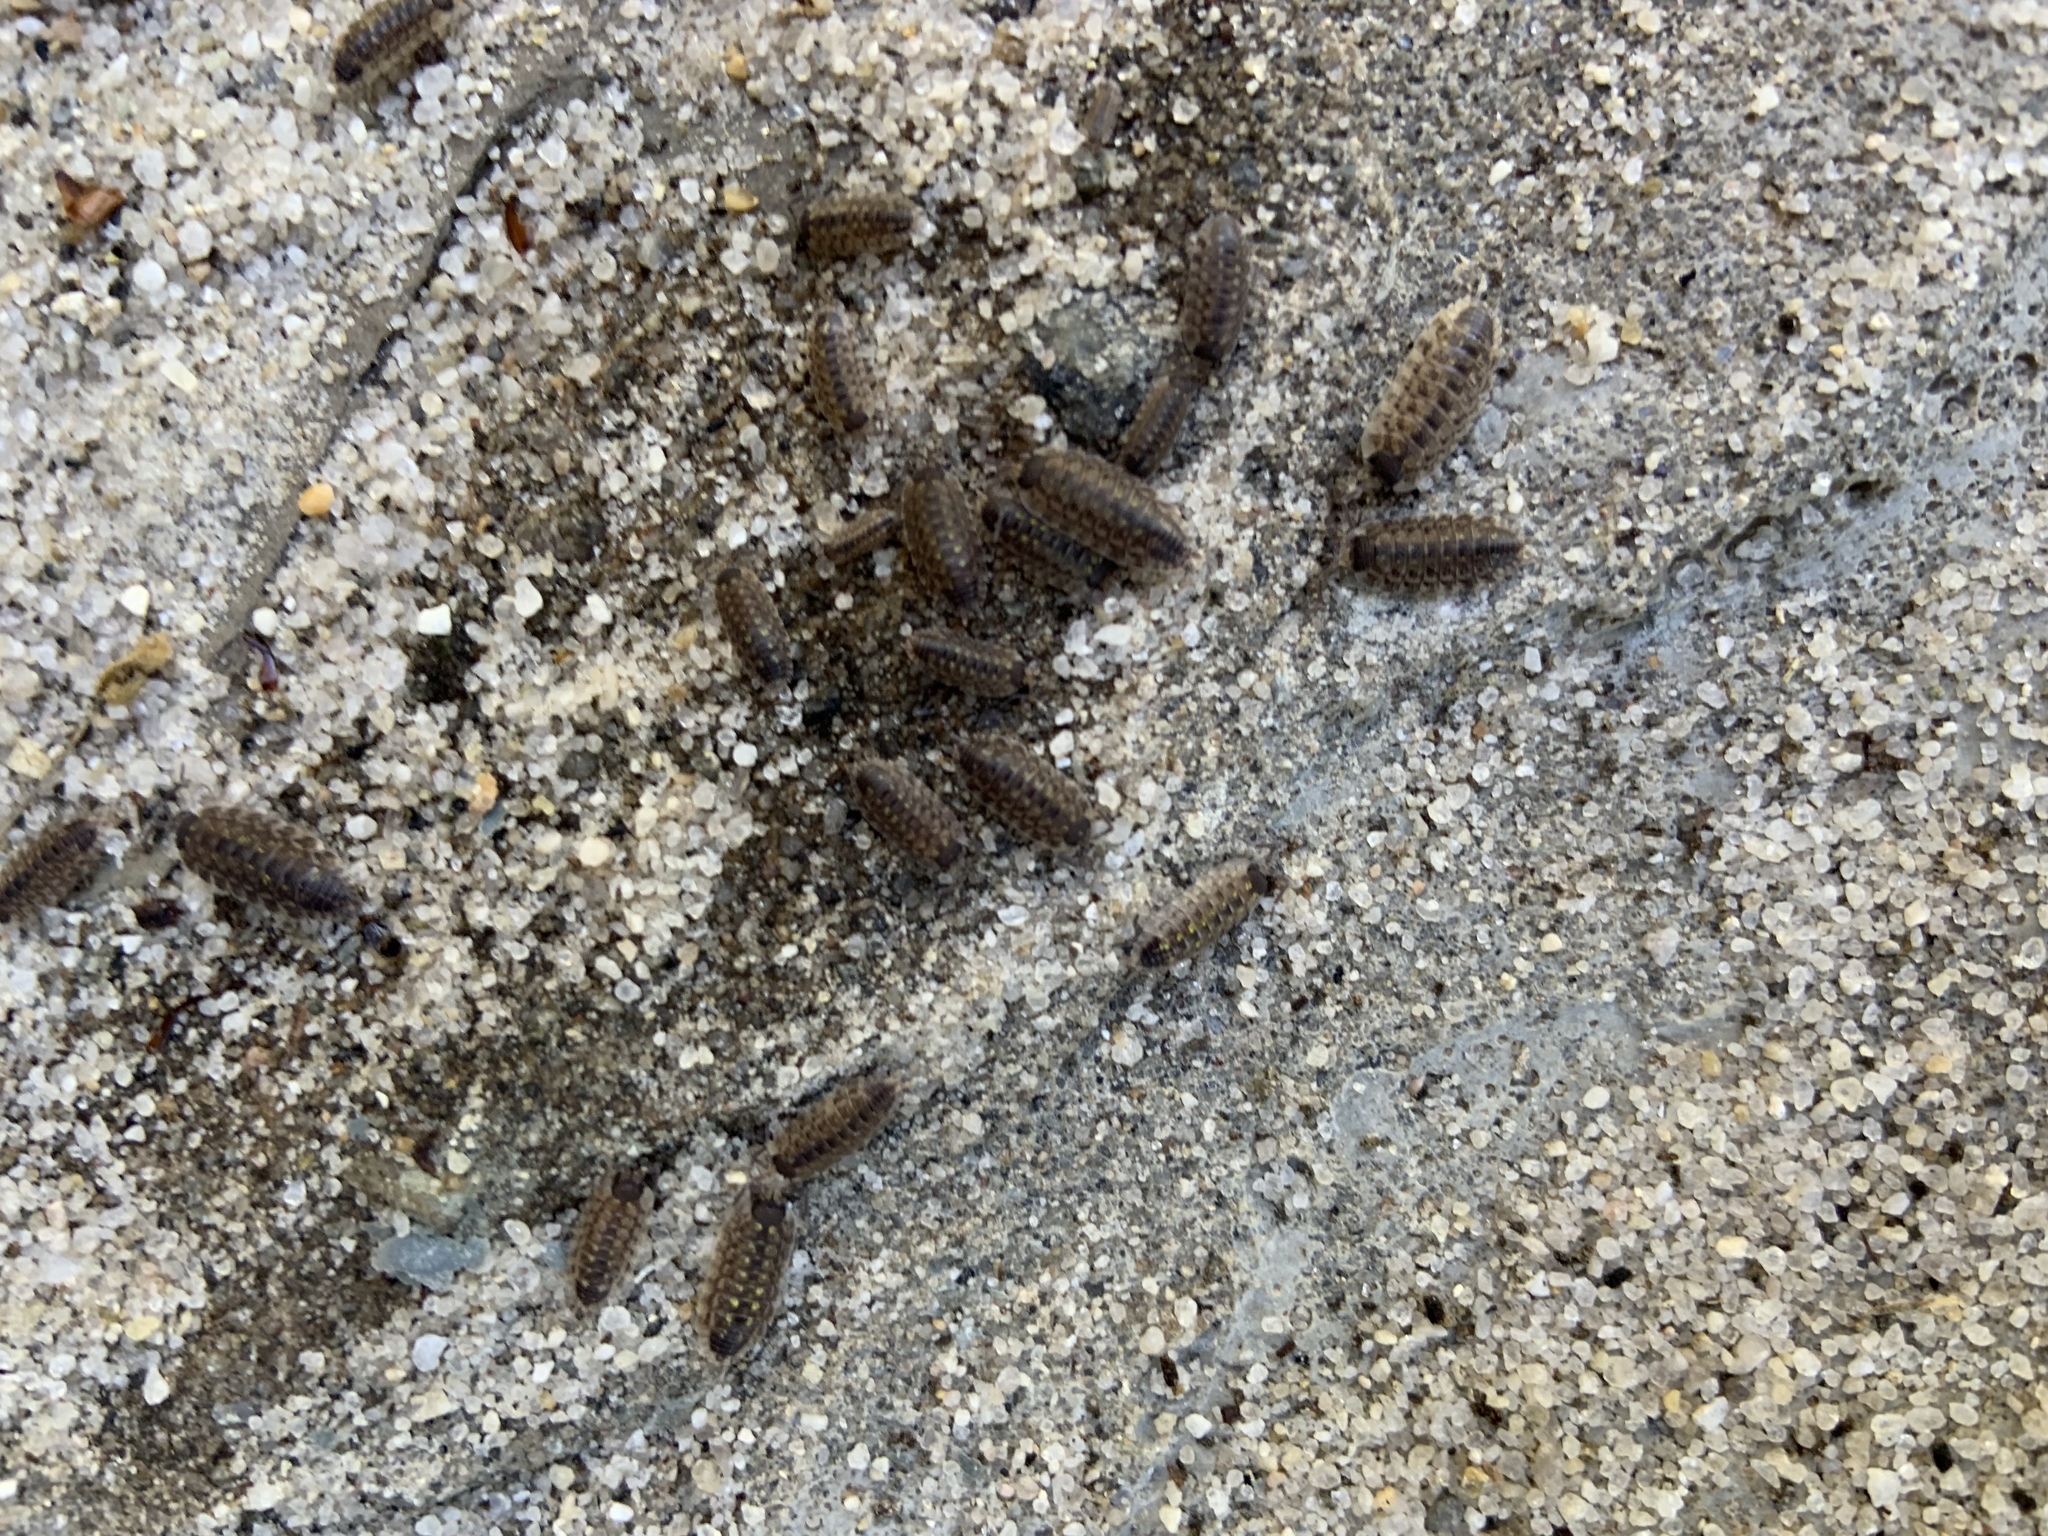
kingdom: Animalia
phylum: Arthropoda
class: Malacostraca
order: Isopoda
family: Porcellionidae
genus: Porcellio
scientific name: Porcellio spinicornis
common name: Painted woodlouse
